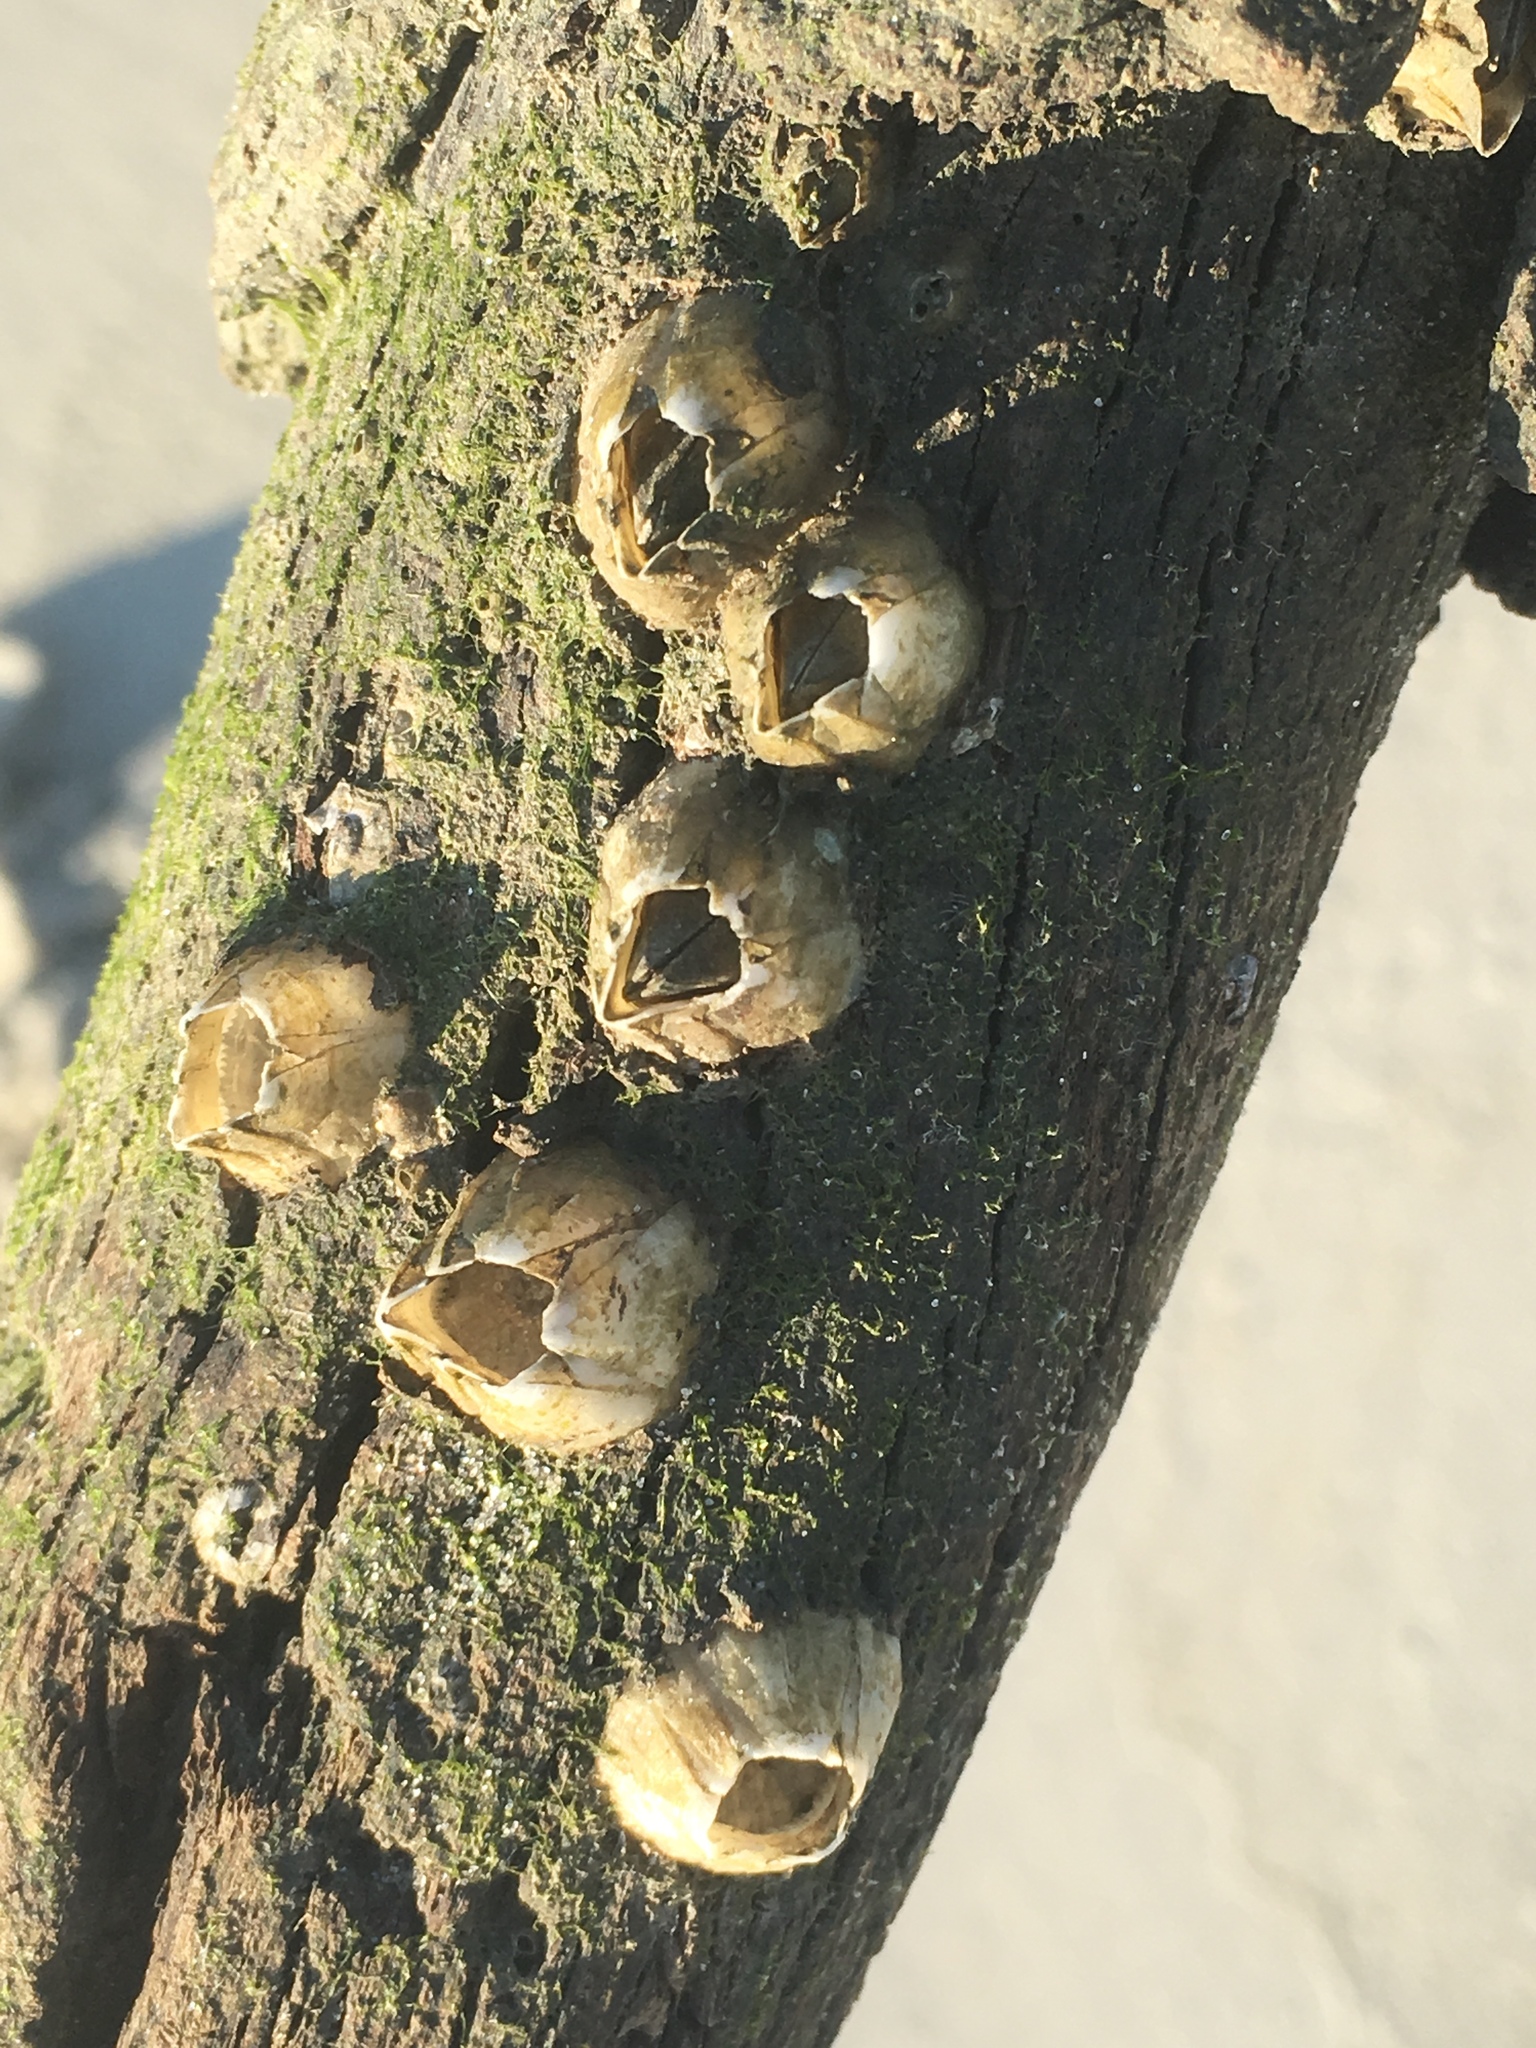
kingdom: Animalia
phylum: Arthropoda
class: Maxillopoda
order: Sessilia
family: Balanidae
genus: Amphibalanus
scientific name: Amphibalanus eburneus
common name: Ivory barnacle
